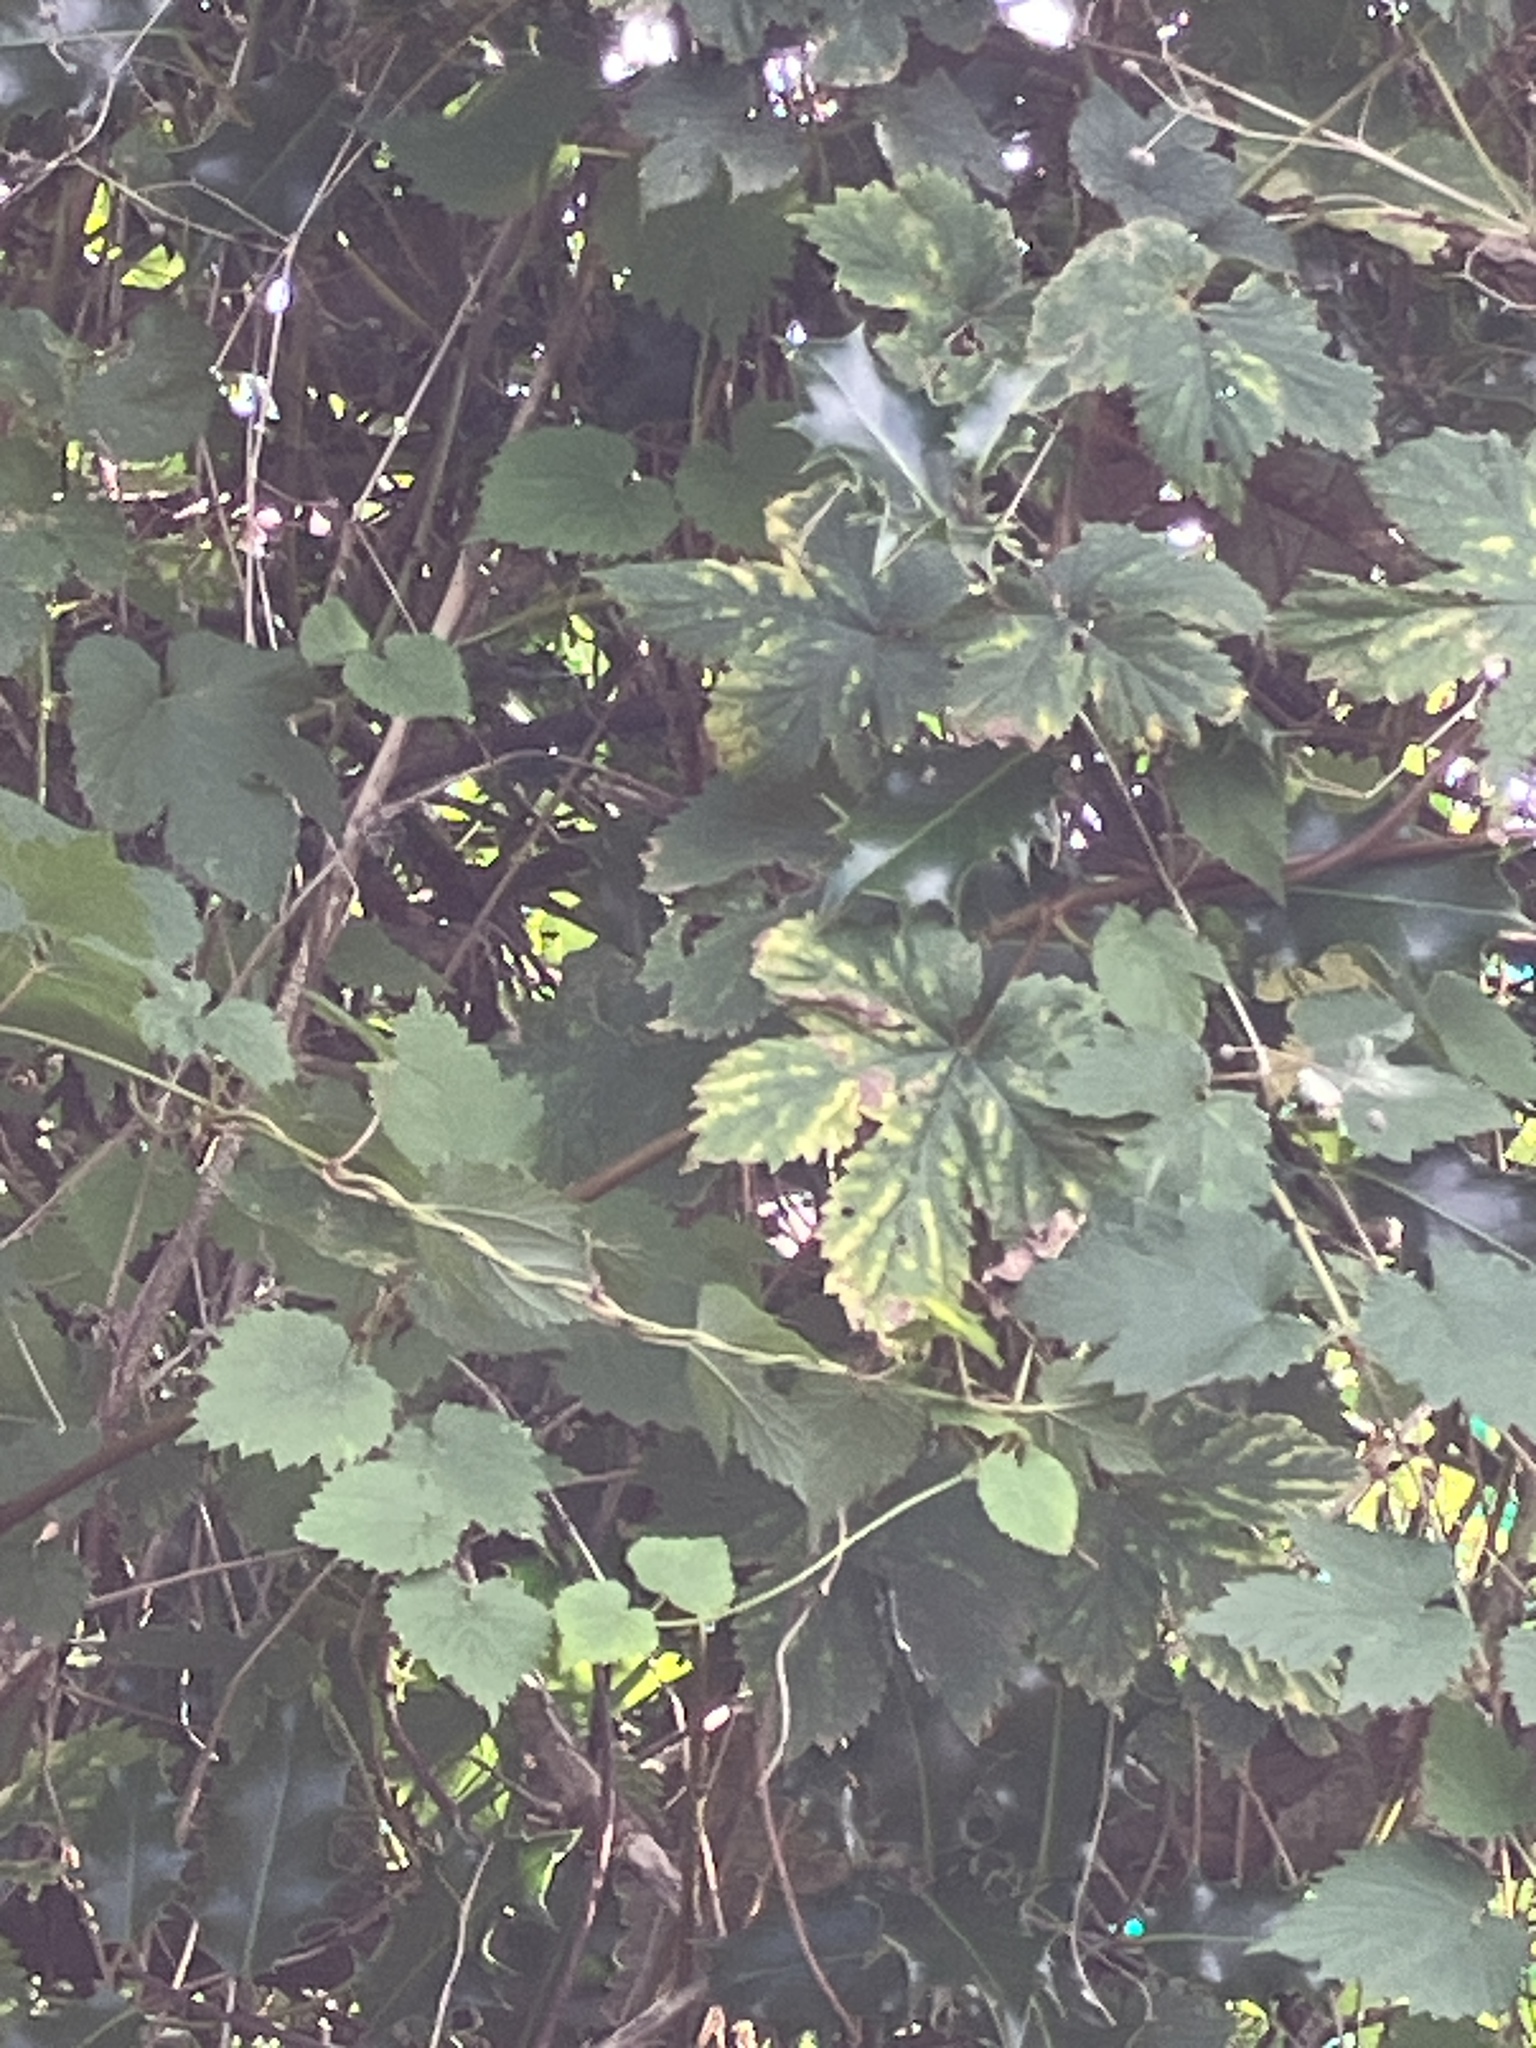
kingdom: Plantae
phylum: Tracheophyta
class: Magnoliopsida
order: Rosales
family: Cannabaceae
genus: Humulus
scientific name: Humulus lupulus
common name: Hop
